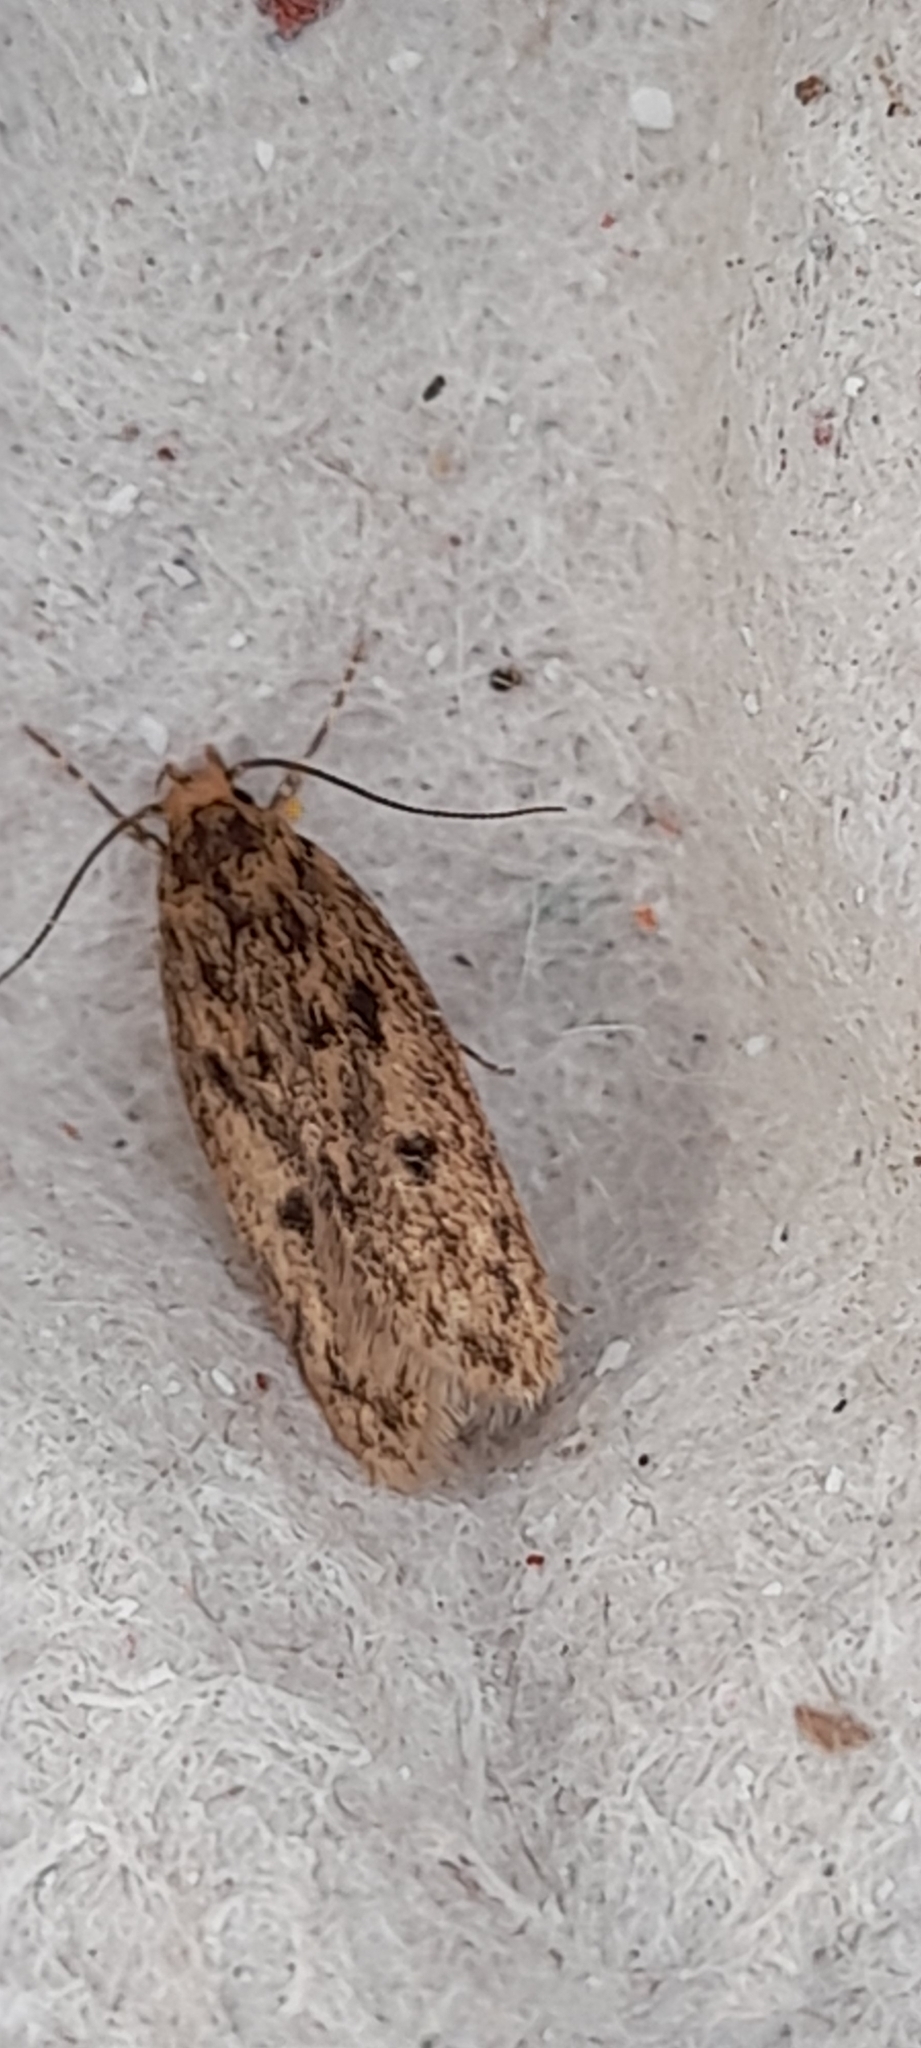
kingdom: Animalia
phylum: Arthropoda
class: Insecta
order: Lepidoptera
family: Oecophoridae
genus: Hofmannophila
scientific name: Hofmannophila pseudospretella
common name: Brown house moth
